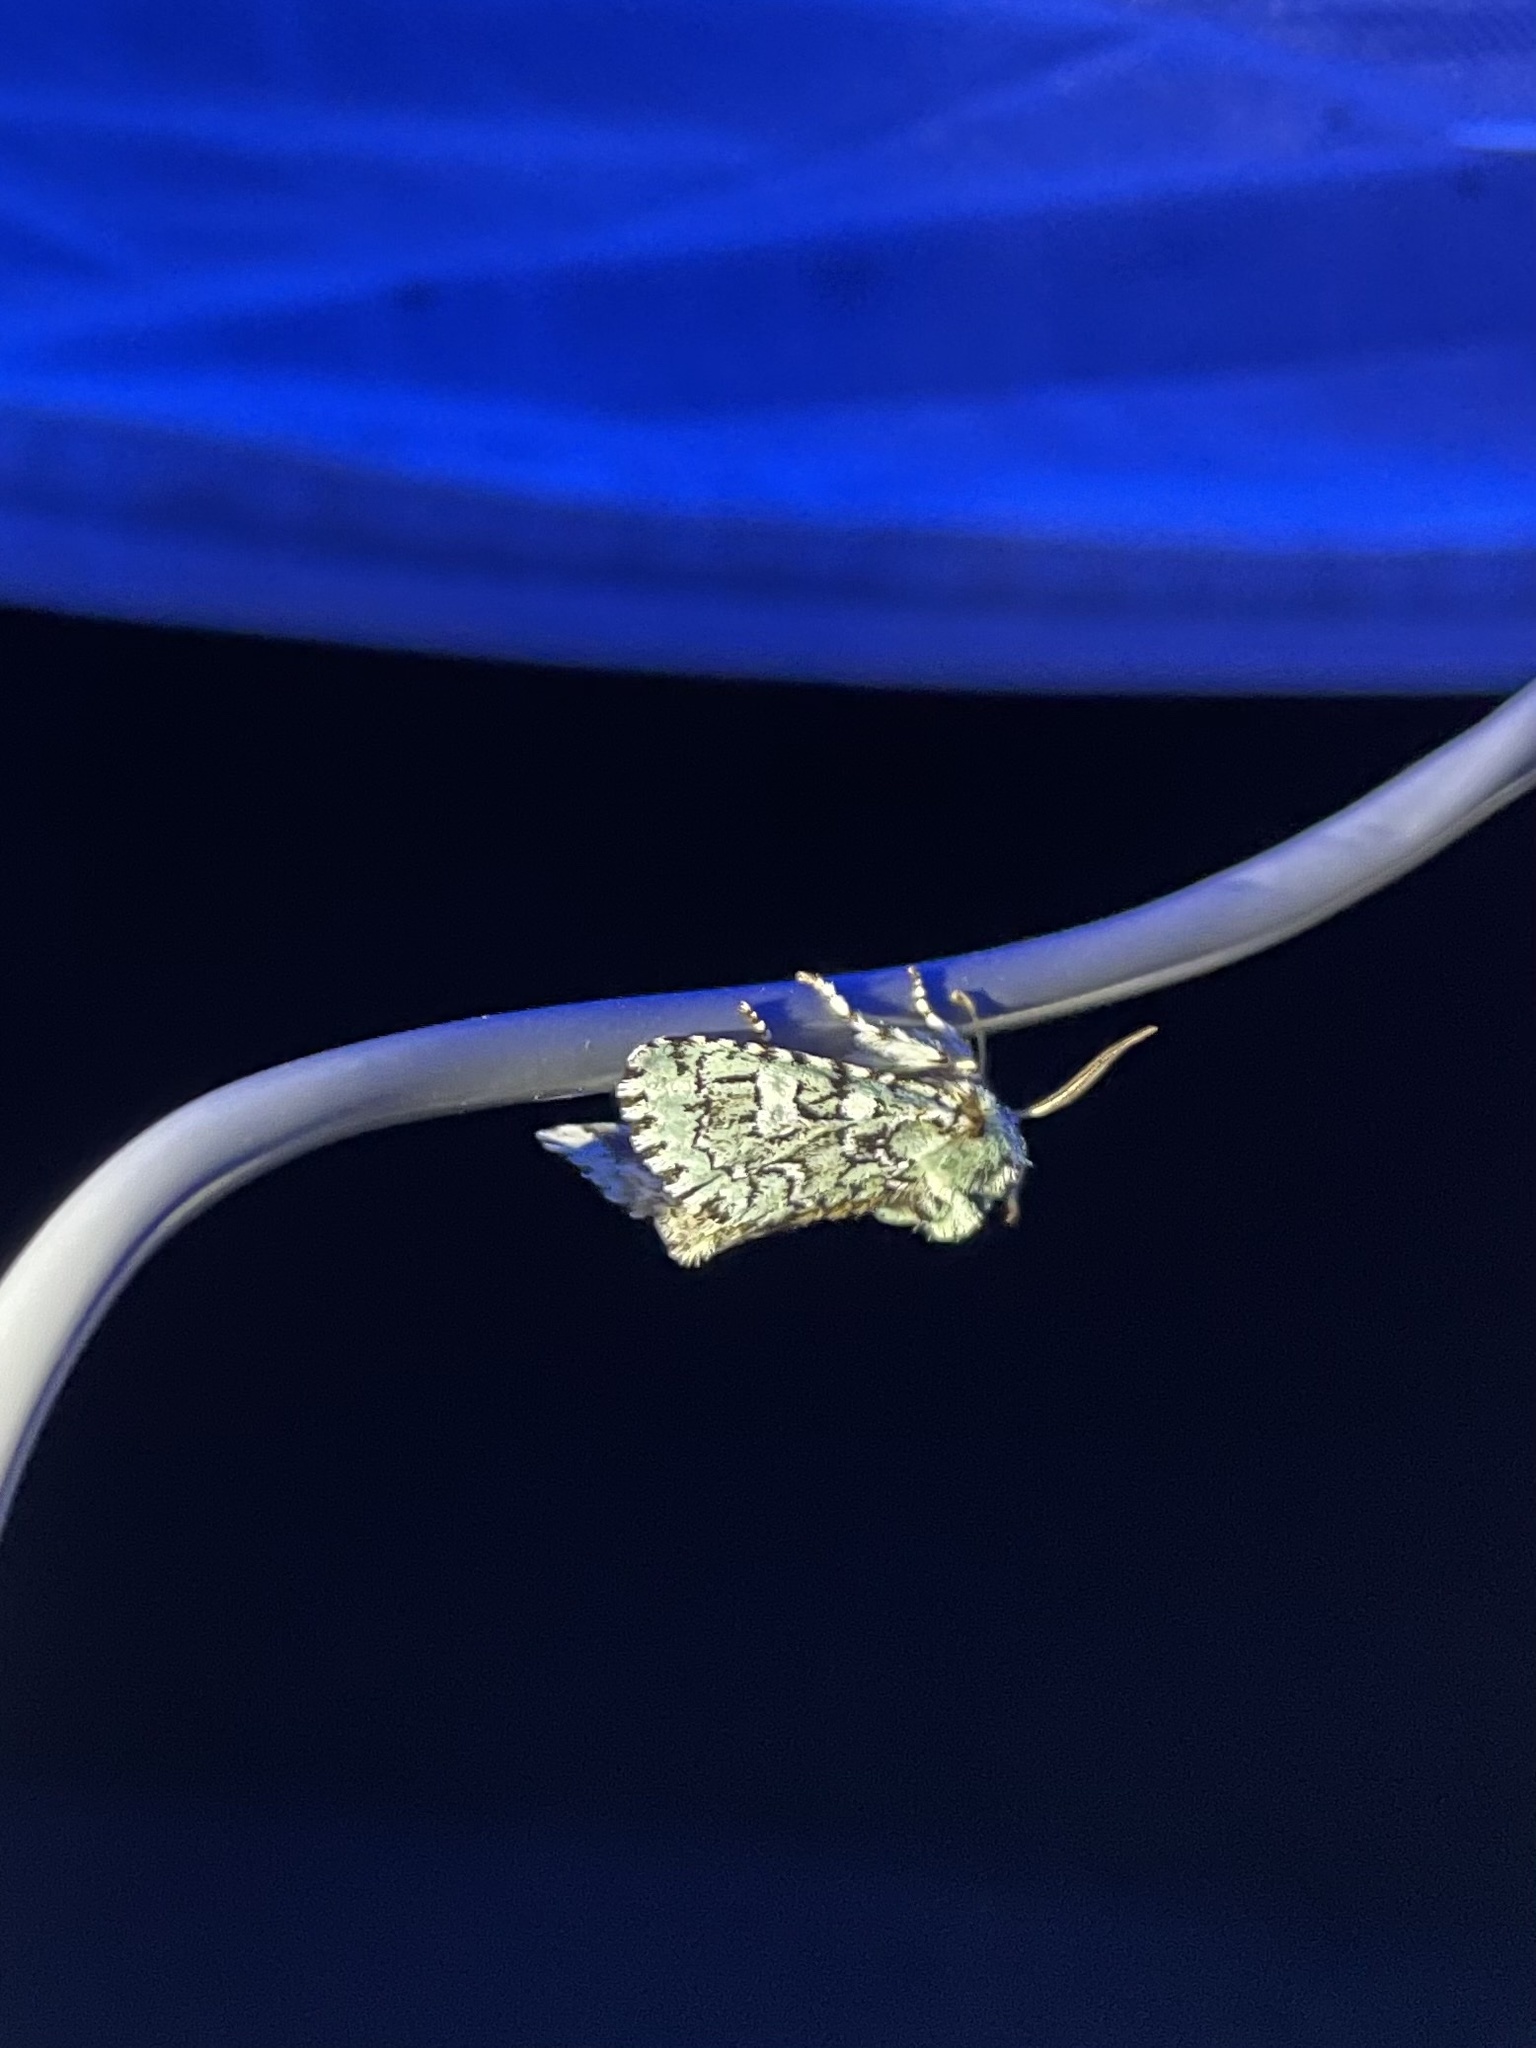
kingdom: Animalia
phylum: Arthropoda
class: Insecta
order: Lepidoptera
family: Noctuidae
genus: Feralia
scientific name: Feralia jocosa
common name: Joker
